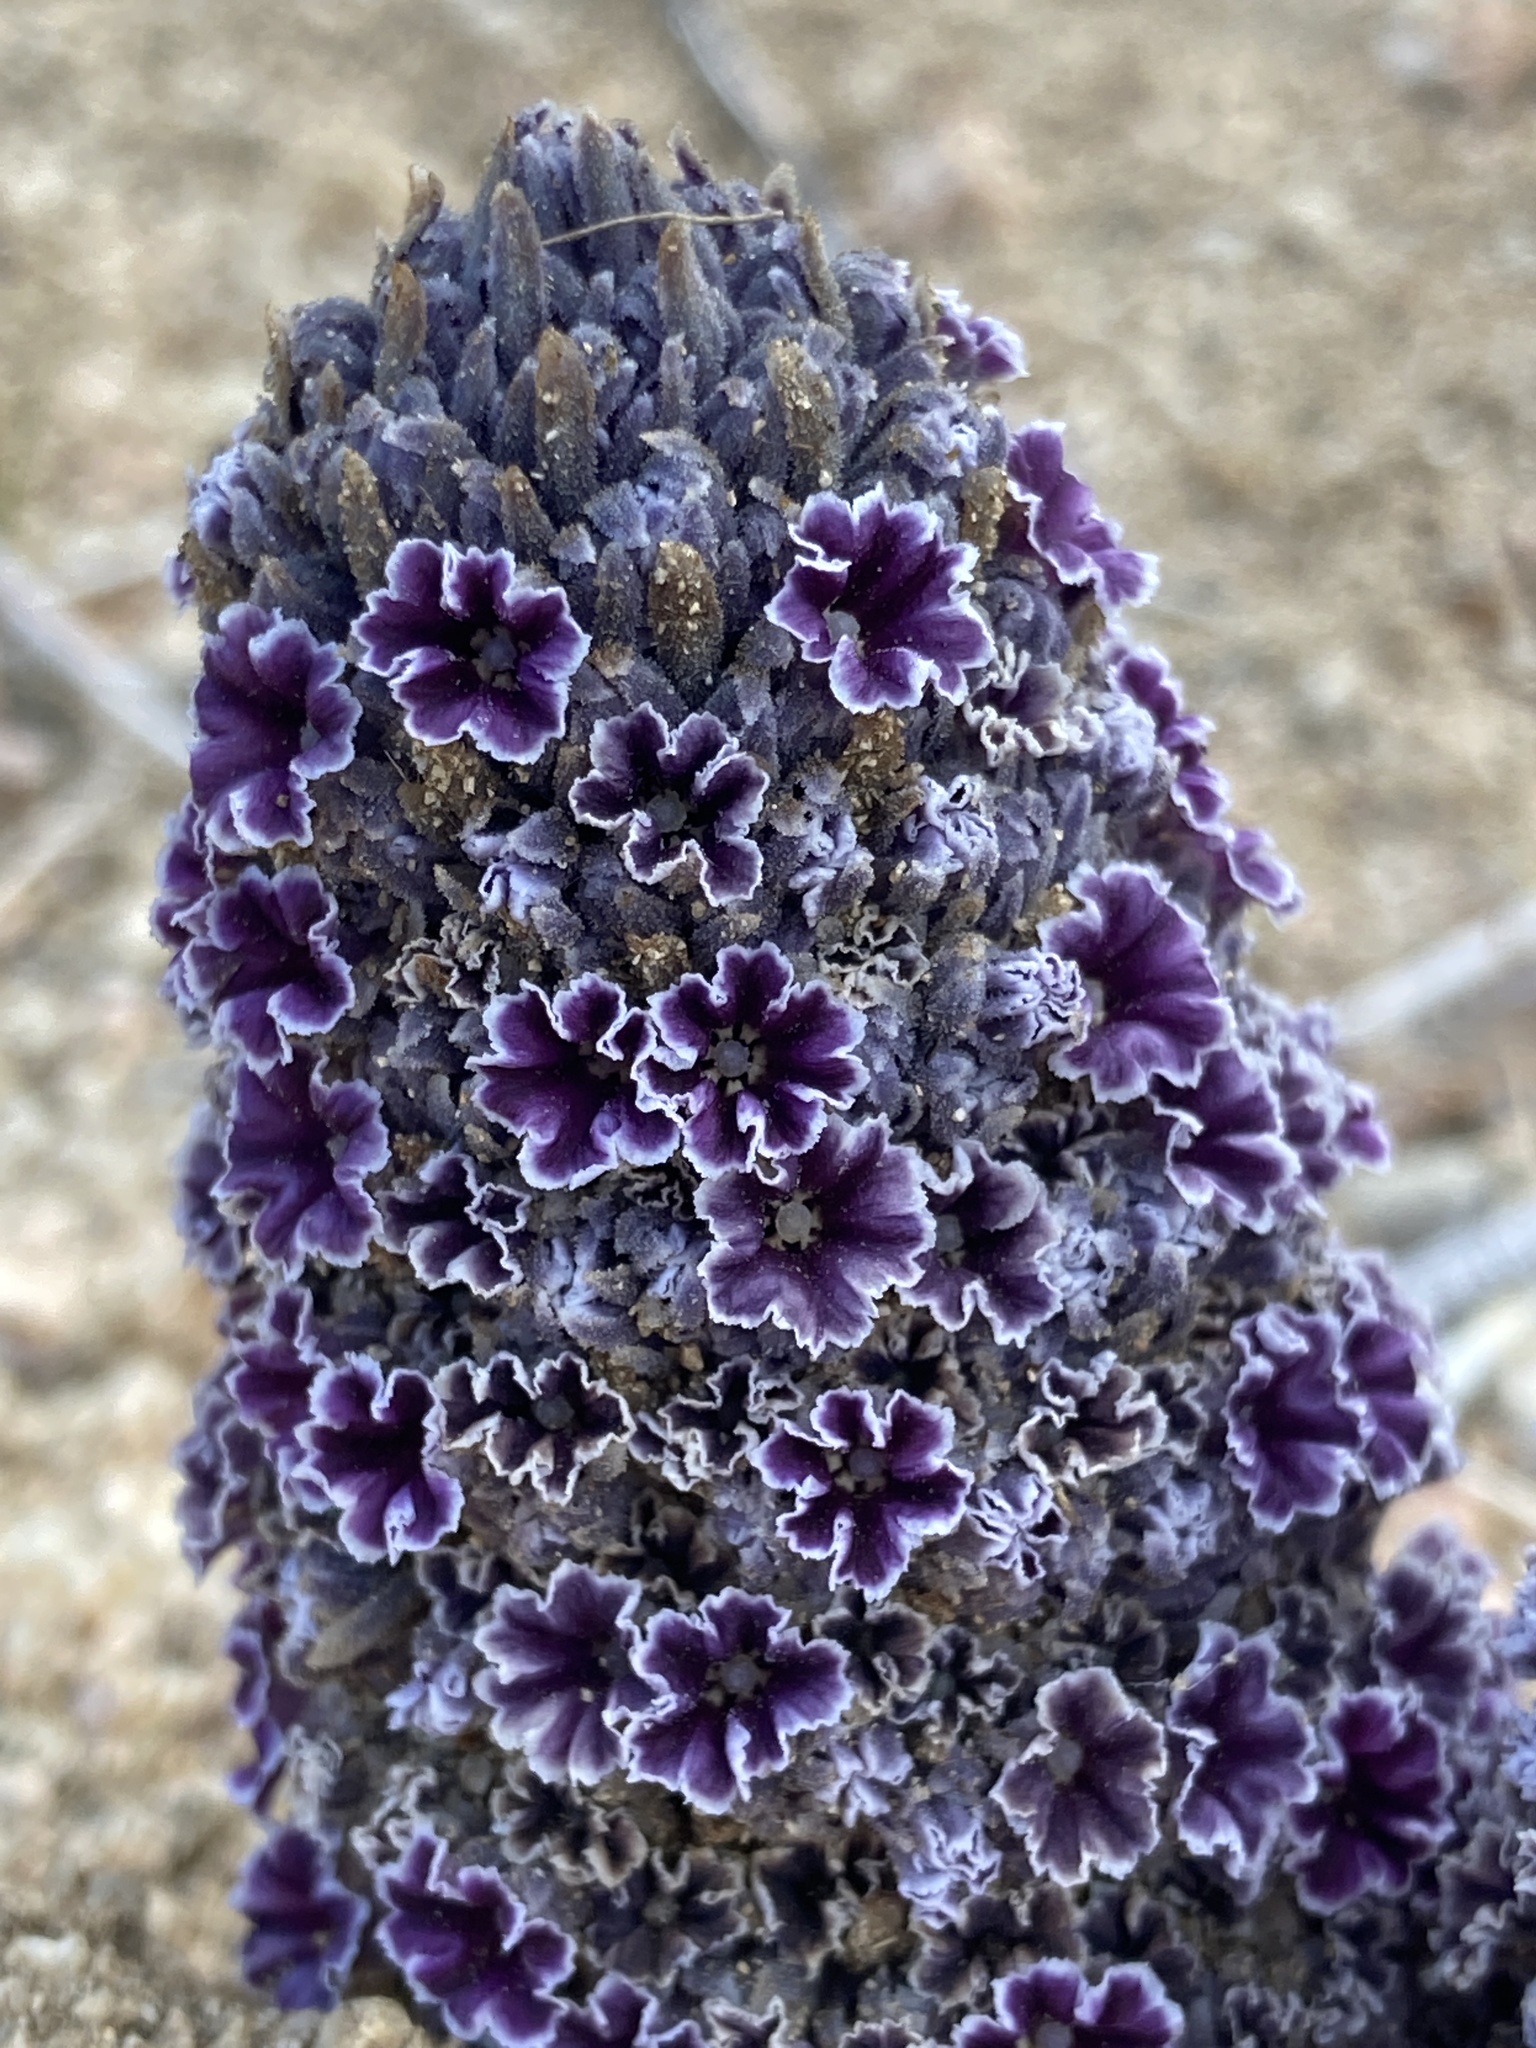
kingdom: Plantae
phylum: Tracheophyta
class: Magnoliopsida
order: Boraginales
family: Lennoaceae
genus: Pholisma
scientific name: Pholisma arenarium
